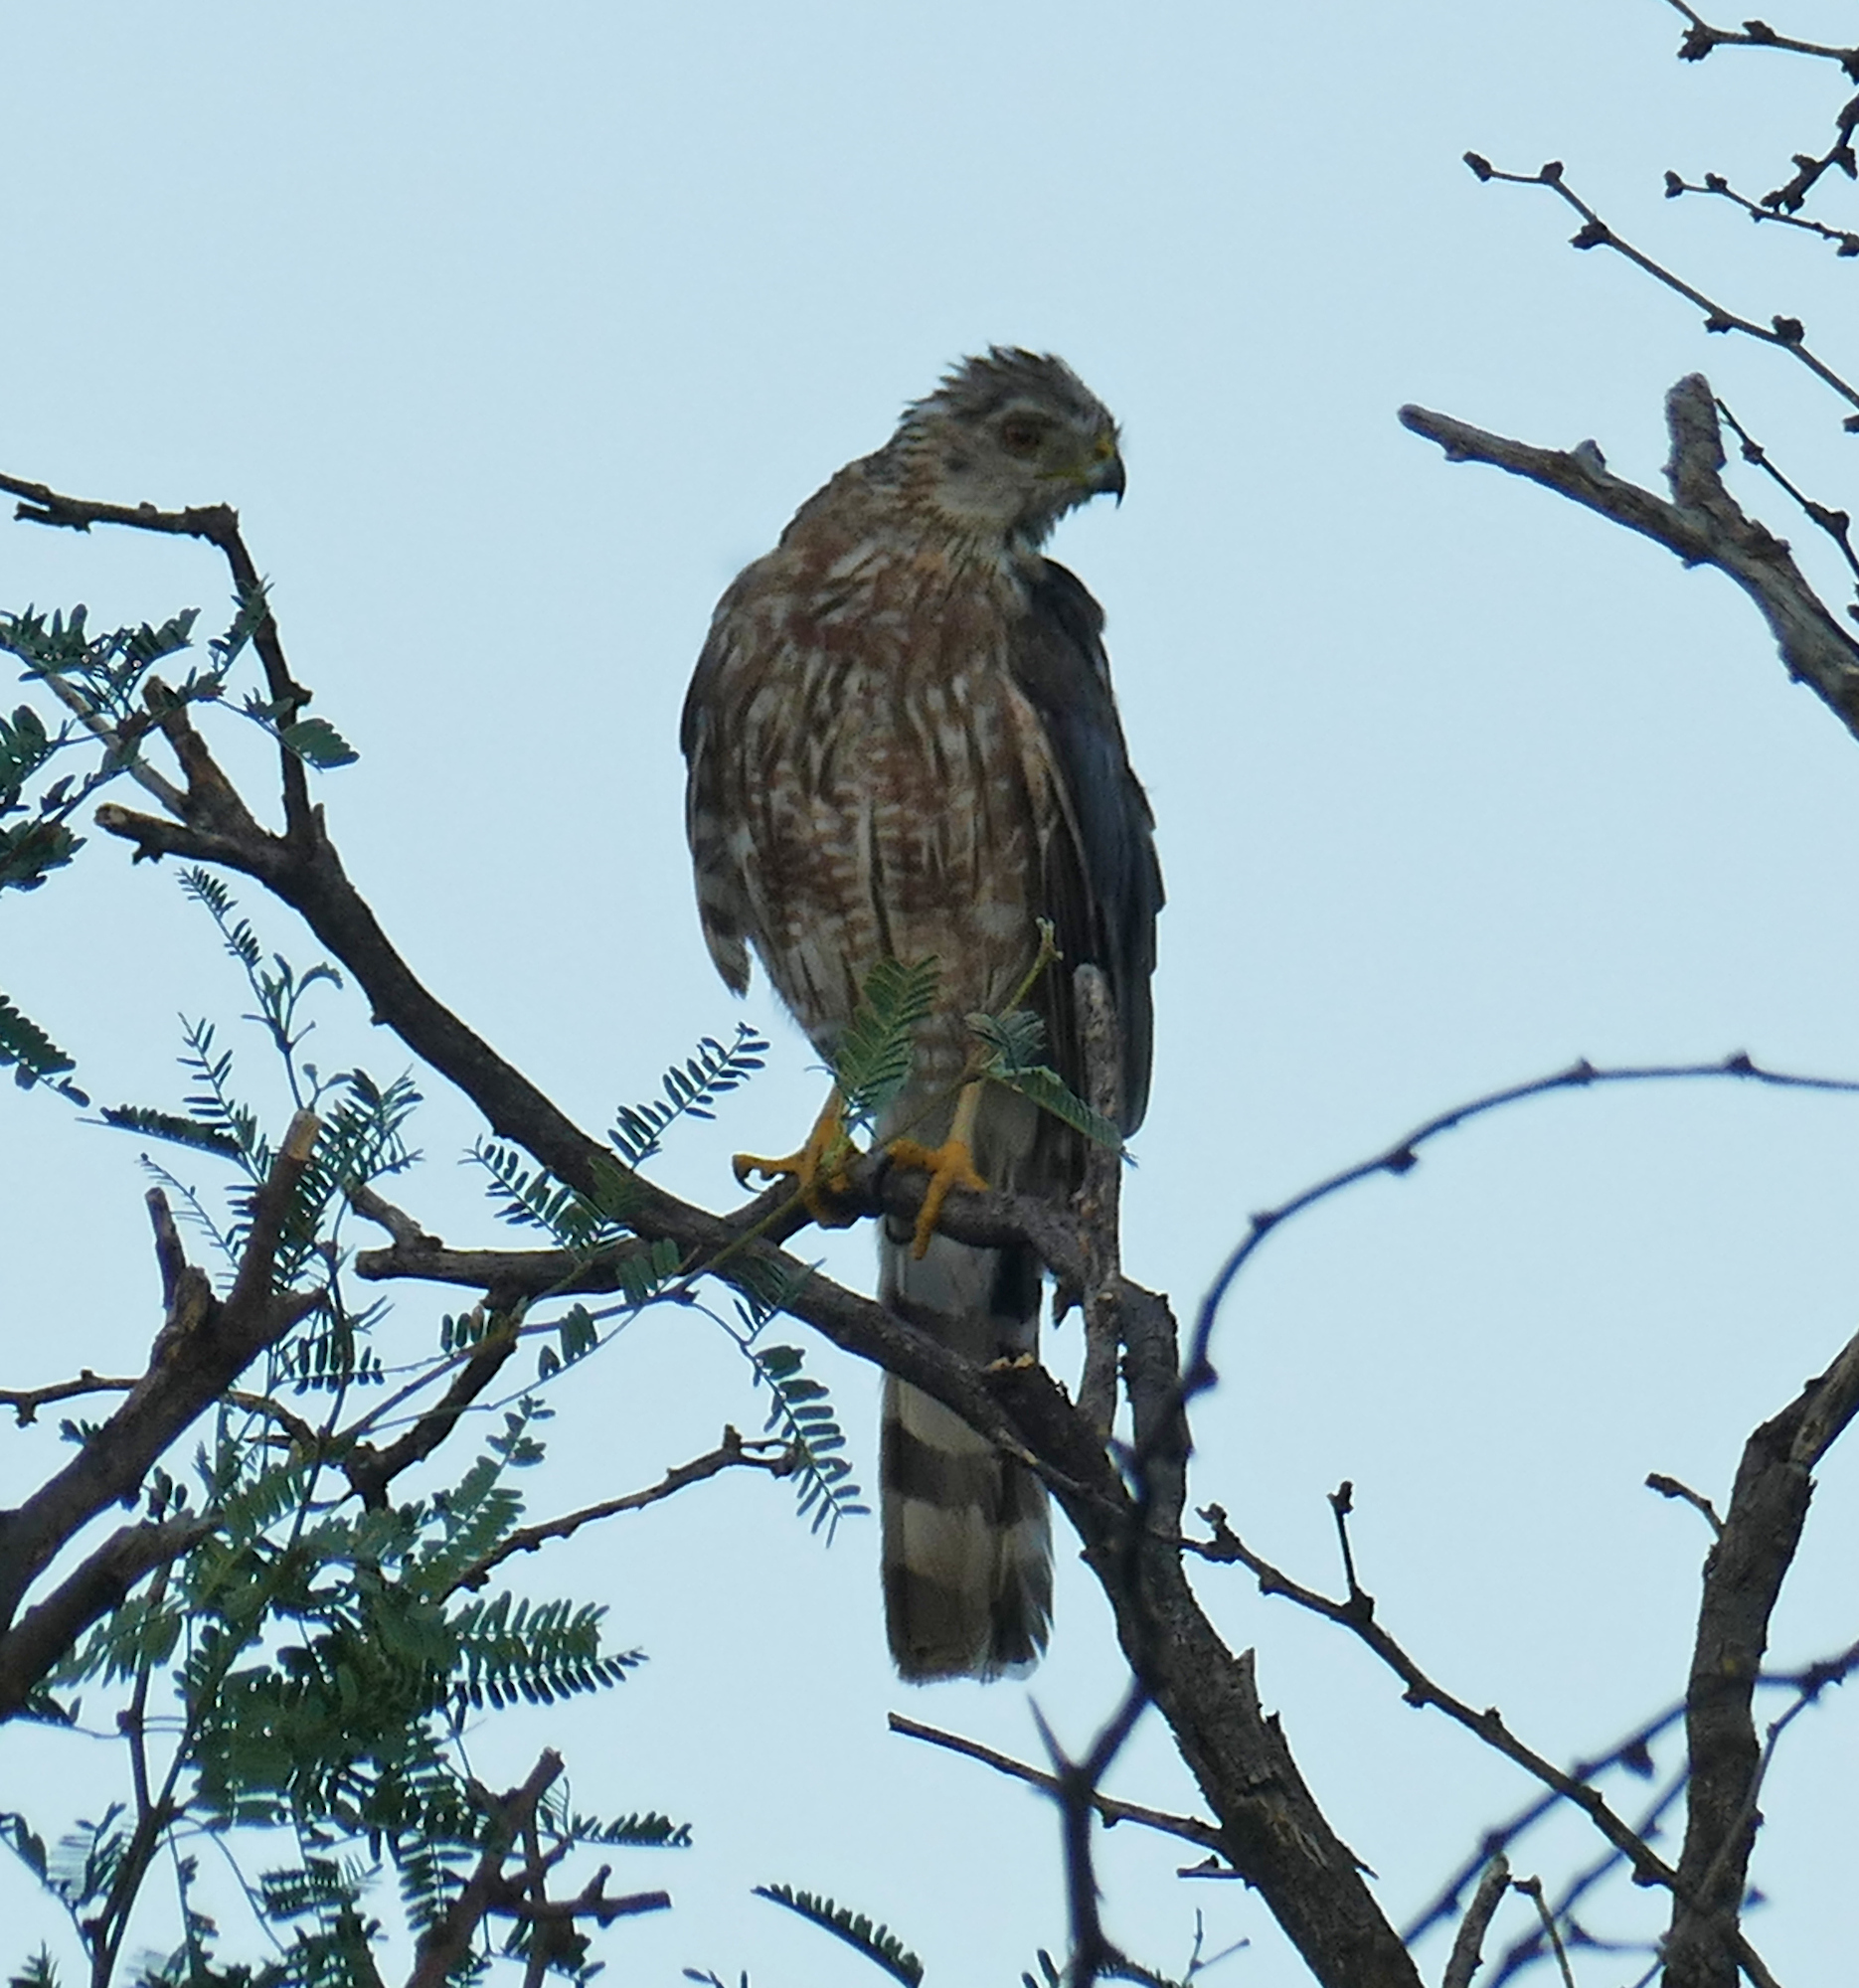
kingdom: Animalia
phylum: Chordata
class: Aves
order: Accipitriformes
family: Accipitridae
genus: Accipiter
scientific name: Accipiter cooperii
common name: Cooper's hawk
